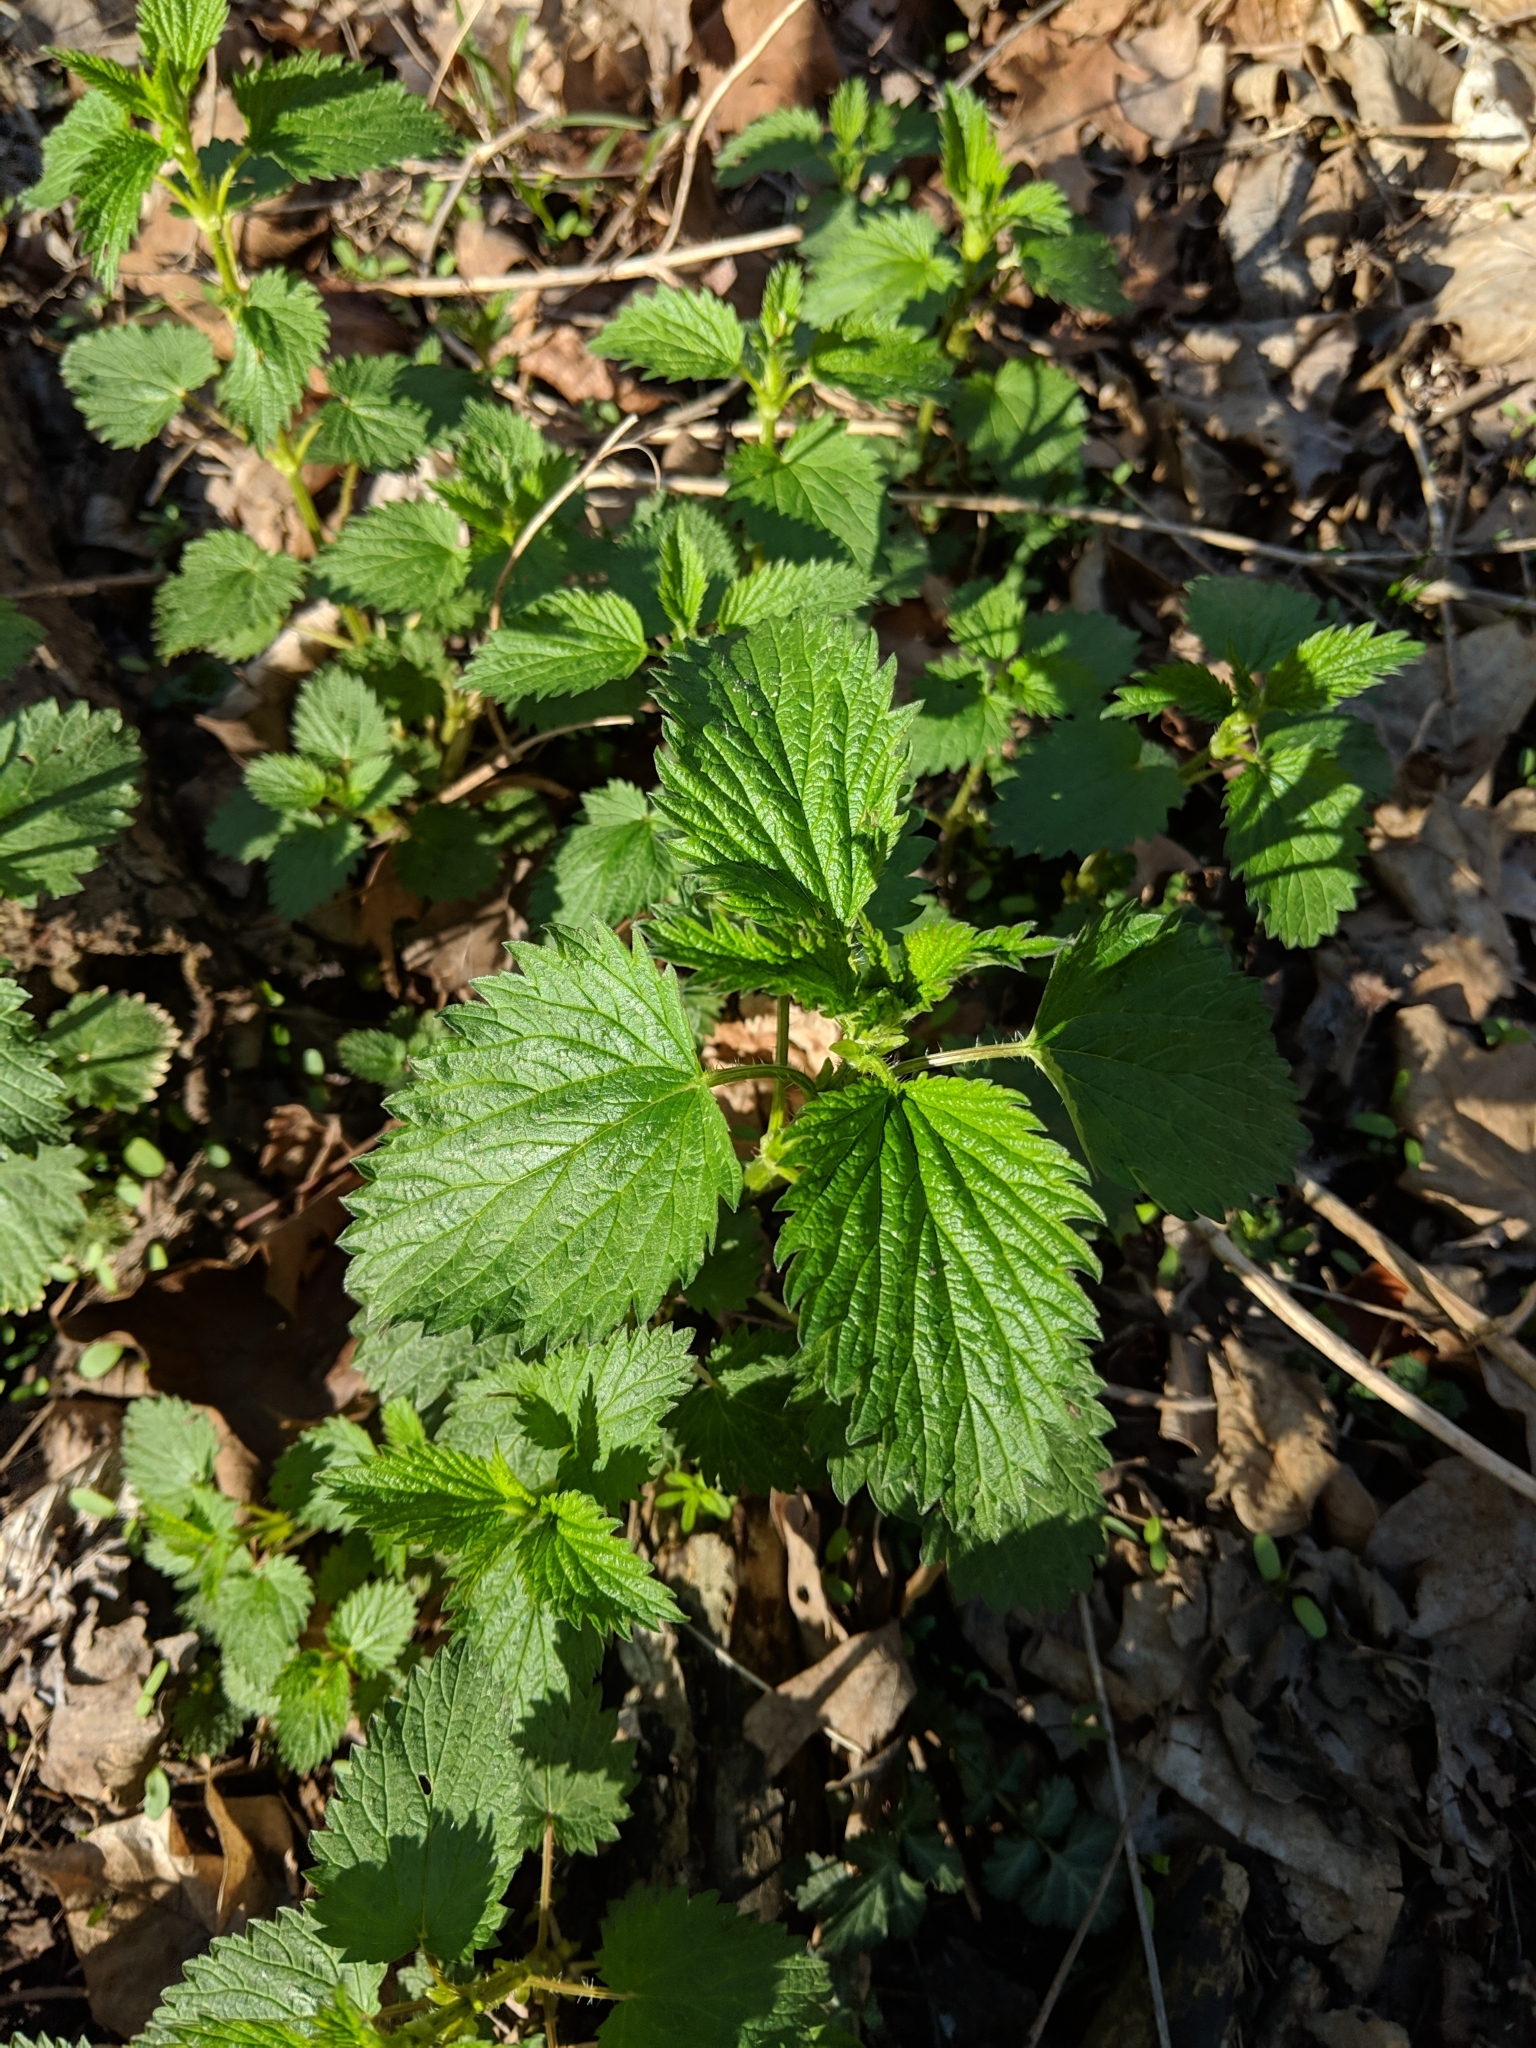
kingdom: Plantae
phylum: Tracheophyta
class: Magnoliopsida
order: Rosales
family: Urticaceae
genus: Urtica
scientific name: Urtica dioica
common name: Common nettle
